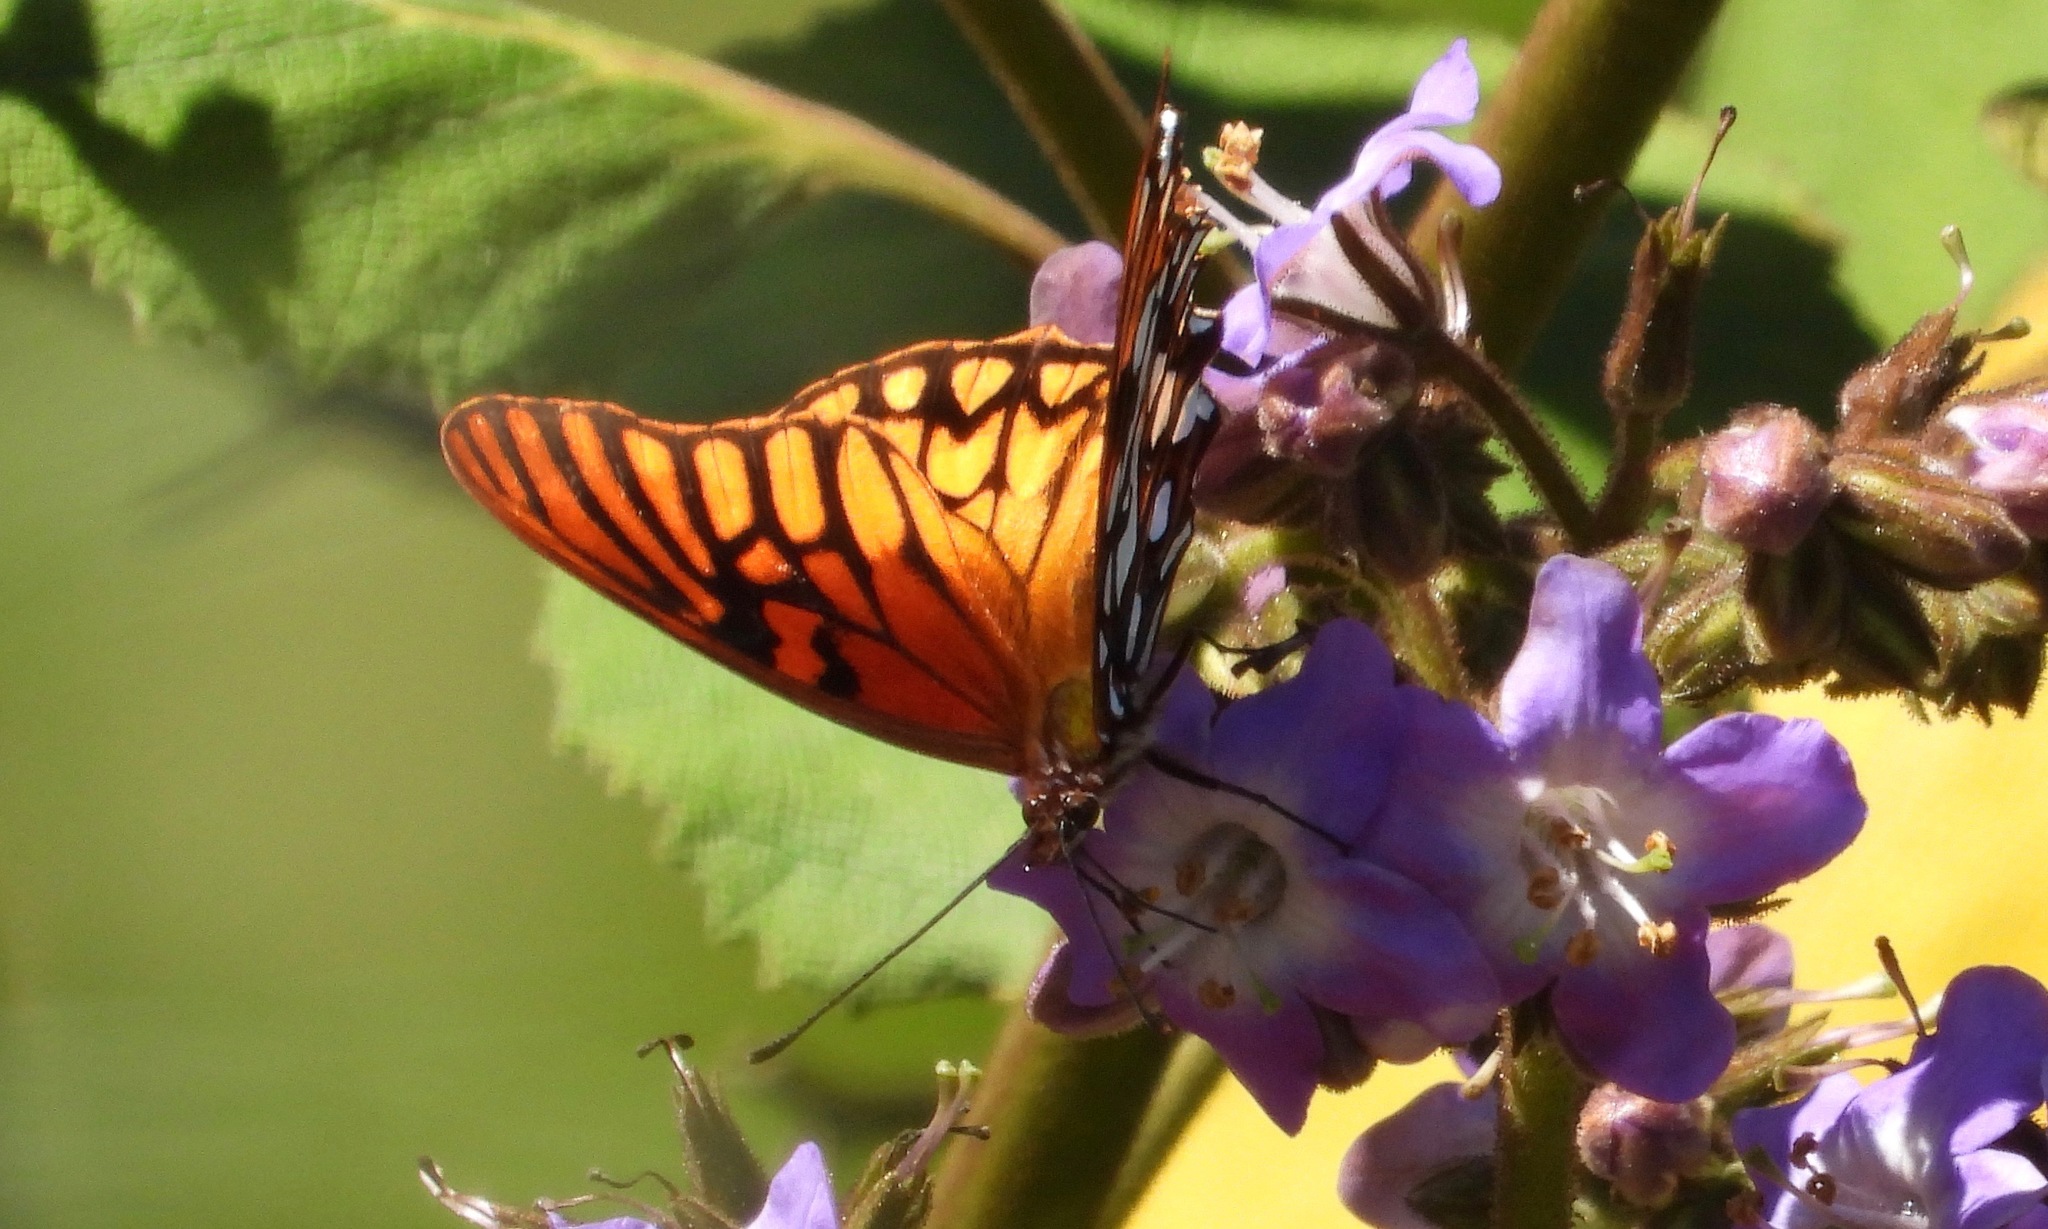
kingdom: Animalia
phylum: Arthropoda
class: Insecta
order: Lepidoptera
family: Nymphalidae
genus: Dione
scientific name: Dione moneta
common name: Mexican silverspot
